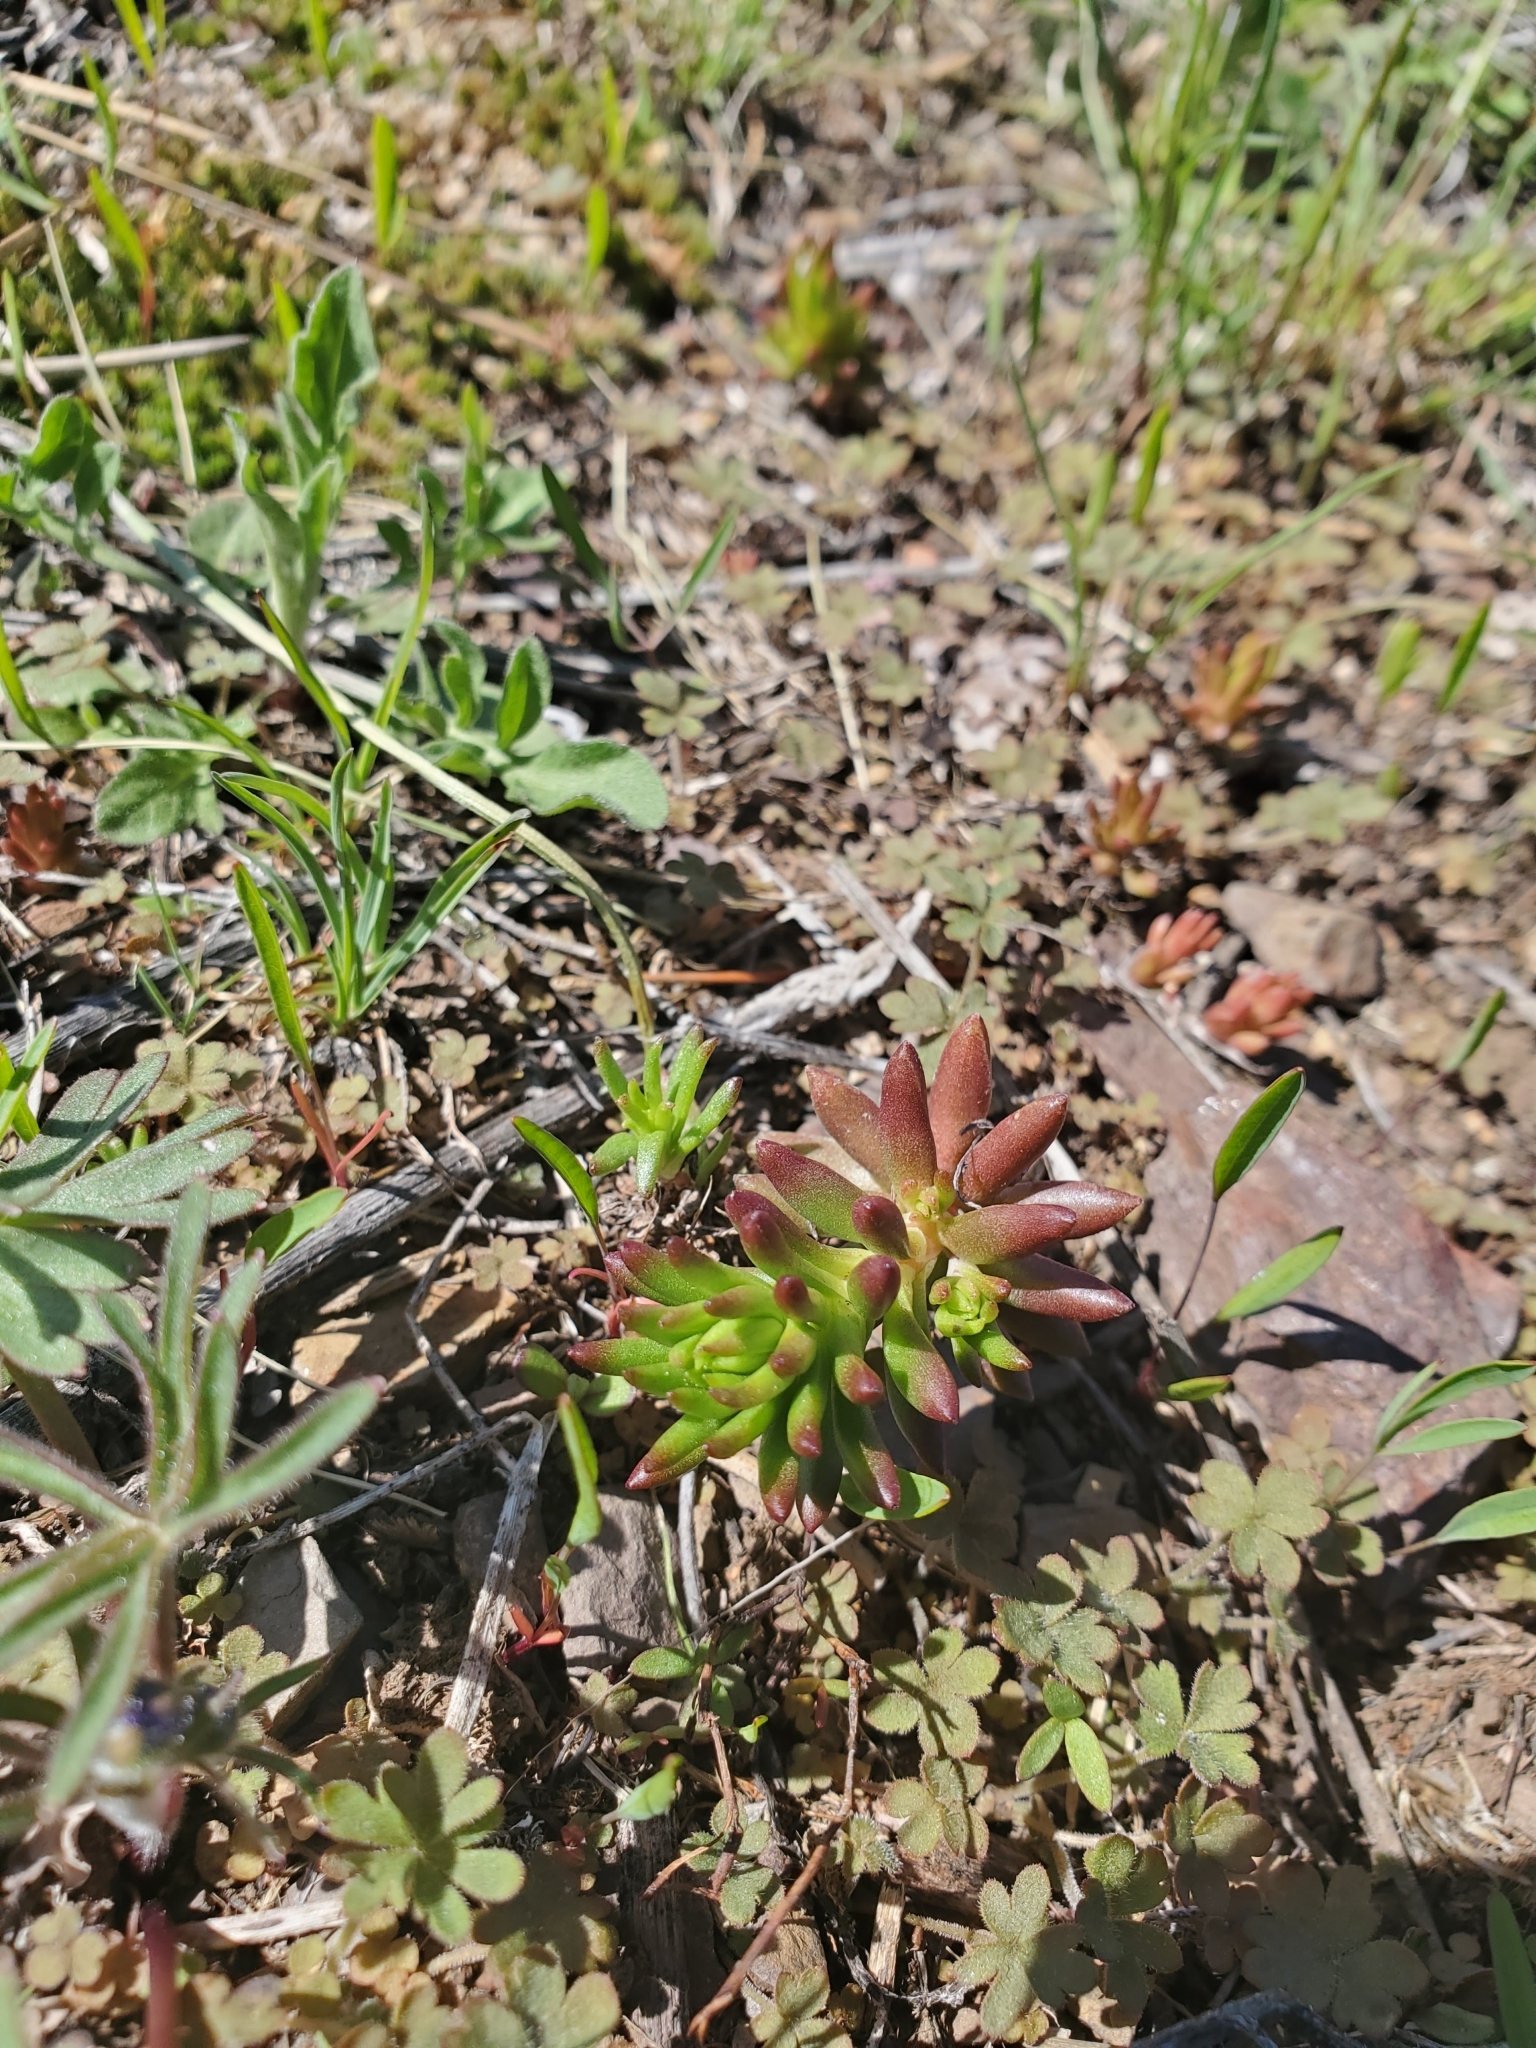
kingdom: Plantae
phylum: Tracheophyta
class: Magnoliopsida
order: Saxifragales
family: Crassulaceae
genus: Sedum
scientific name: Sedum stenopetalum
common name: Narrow-petaled stonecrop
